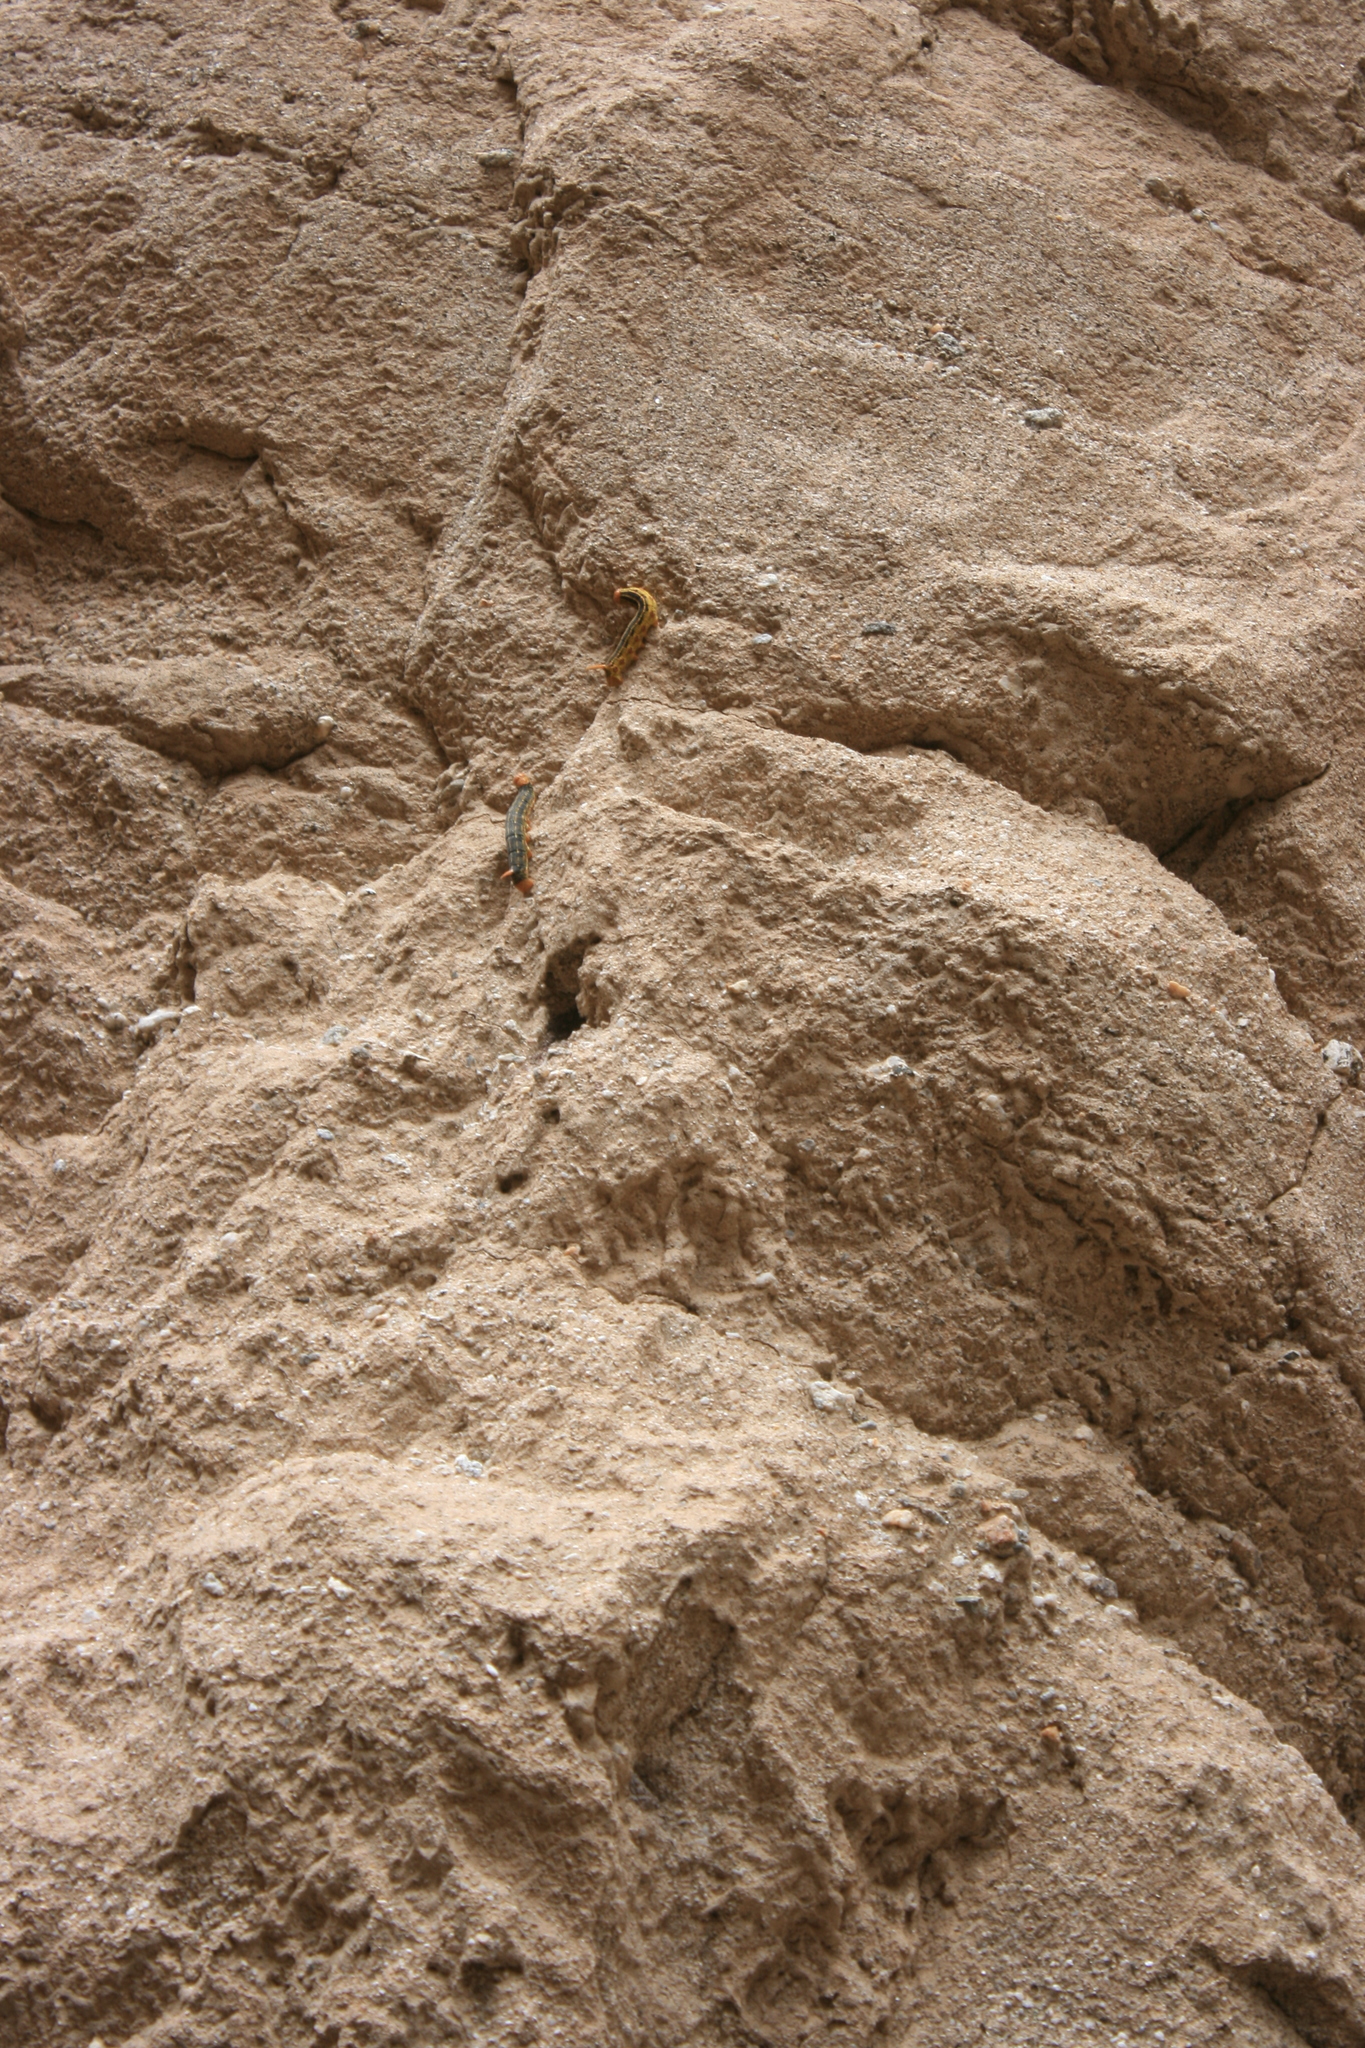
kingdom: Animalia
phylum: Arthropoda
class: Insecta
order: Lepidoptera
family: Sphingidae
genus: Hyles
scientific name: Hyles lineata
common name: White-lined sphinx
